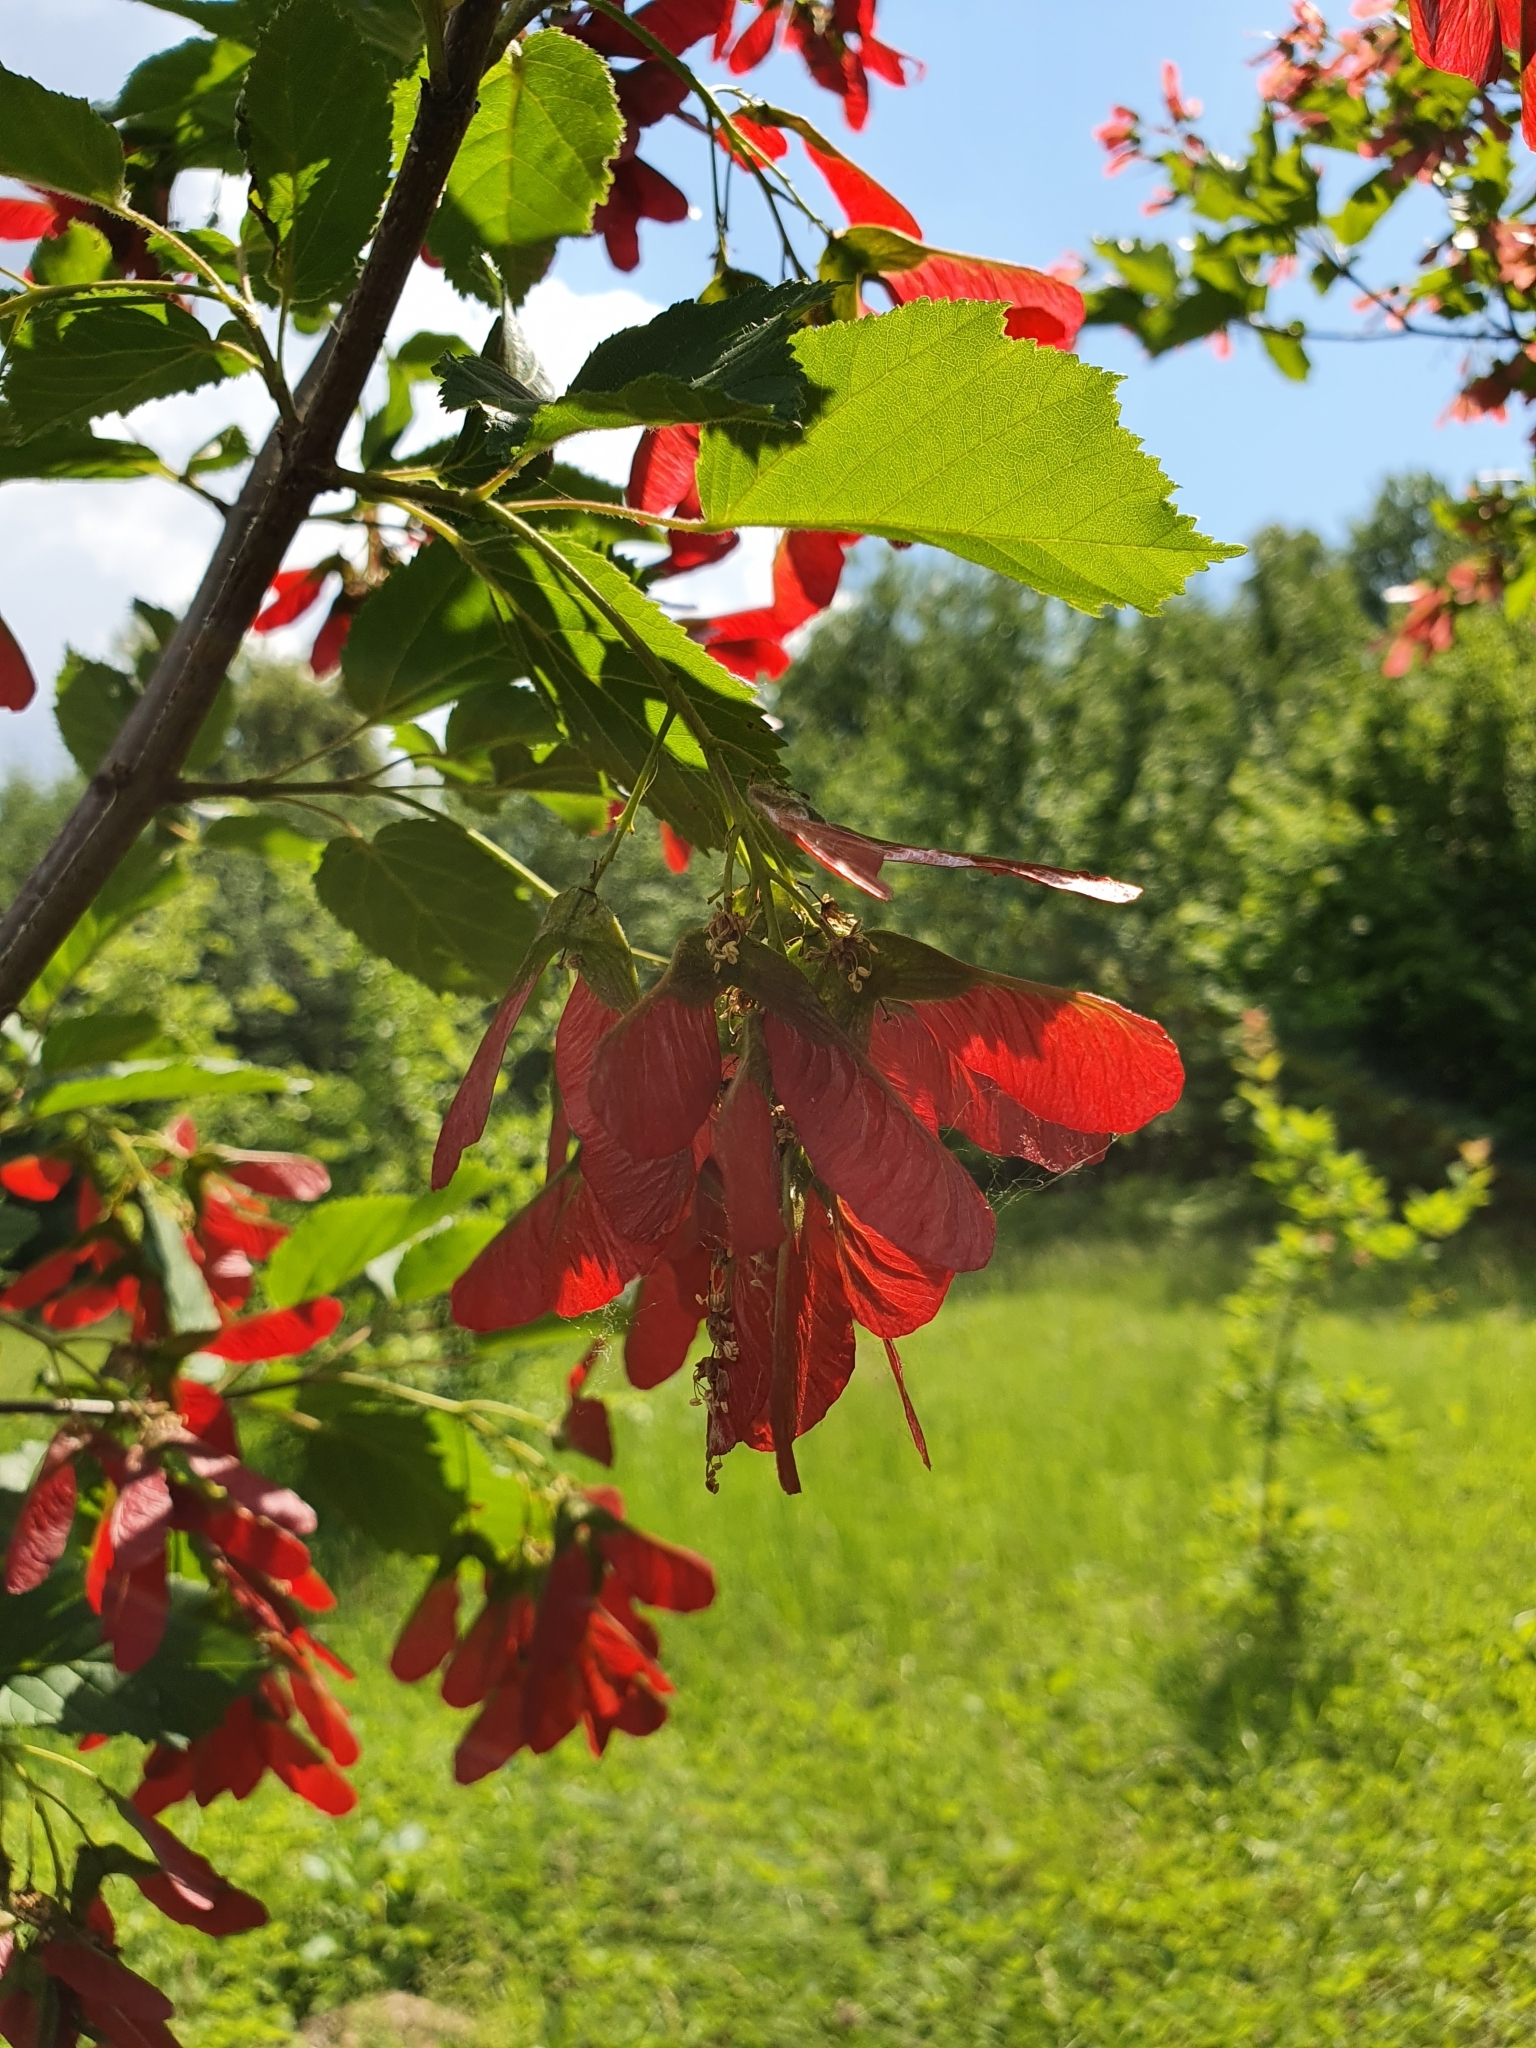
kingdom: Plantae
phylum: Tracheophyta
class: Magnoliopsida
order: Sapindales
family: Sapindaceae
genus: Acer
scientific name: Acer tataricum
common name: Tartar maple
